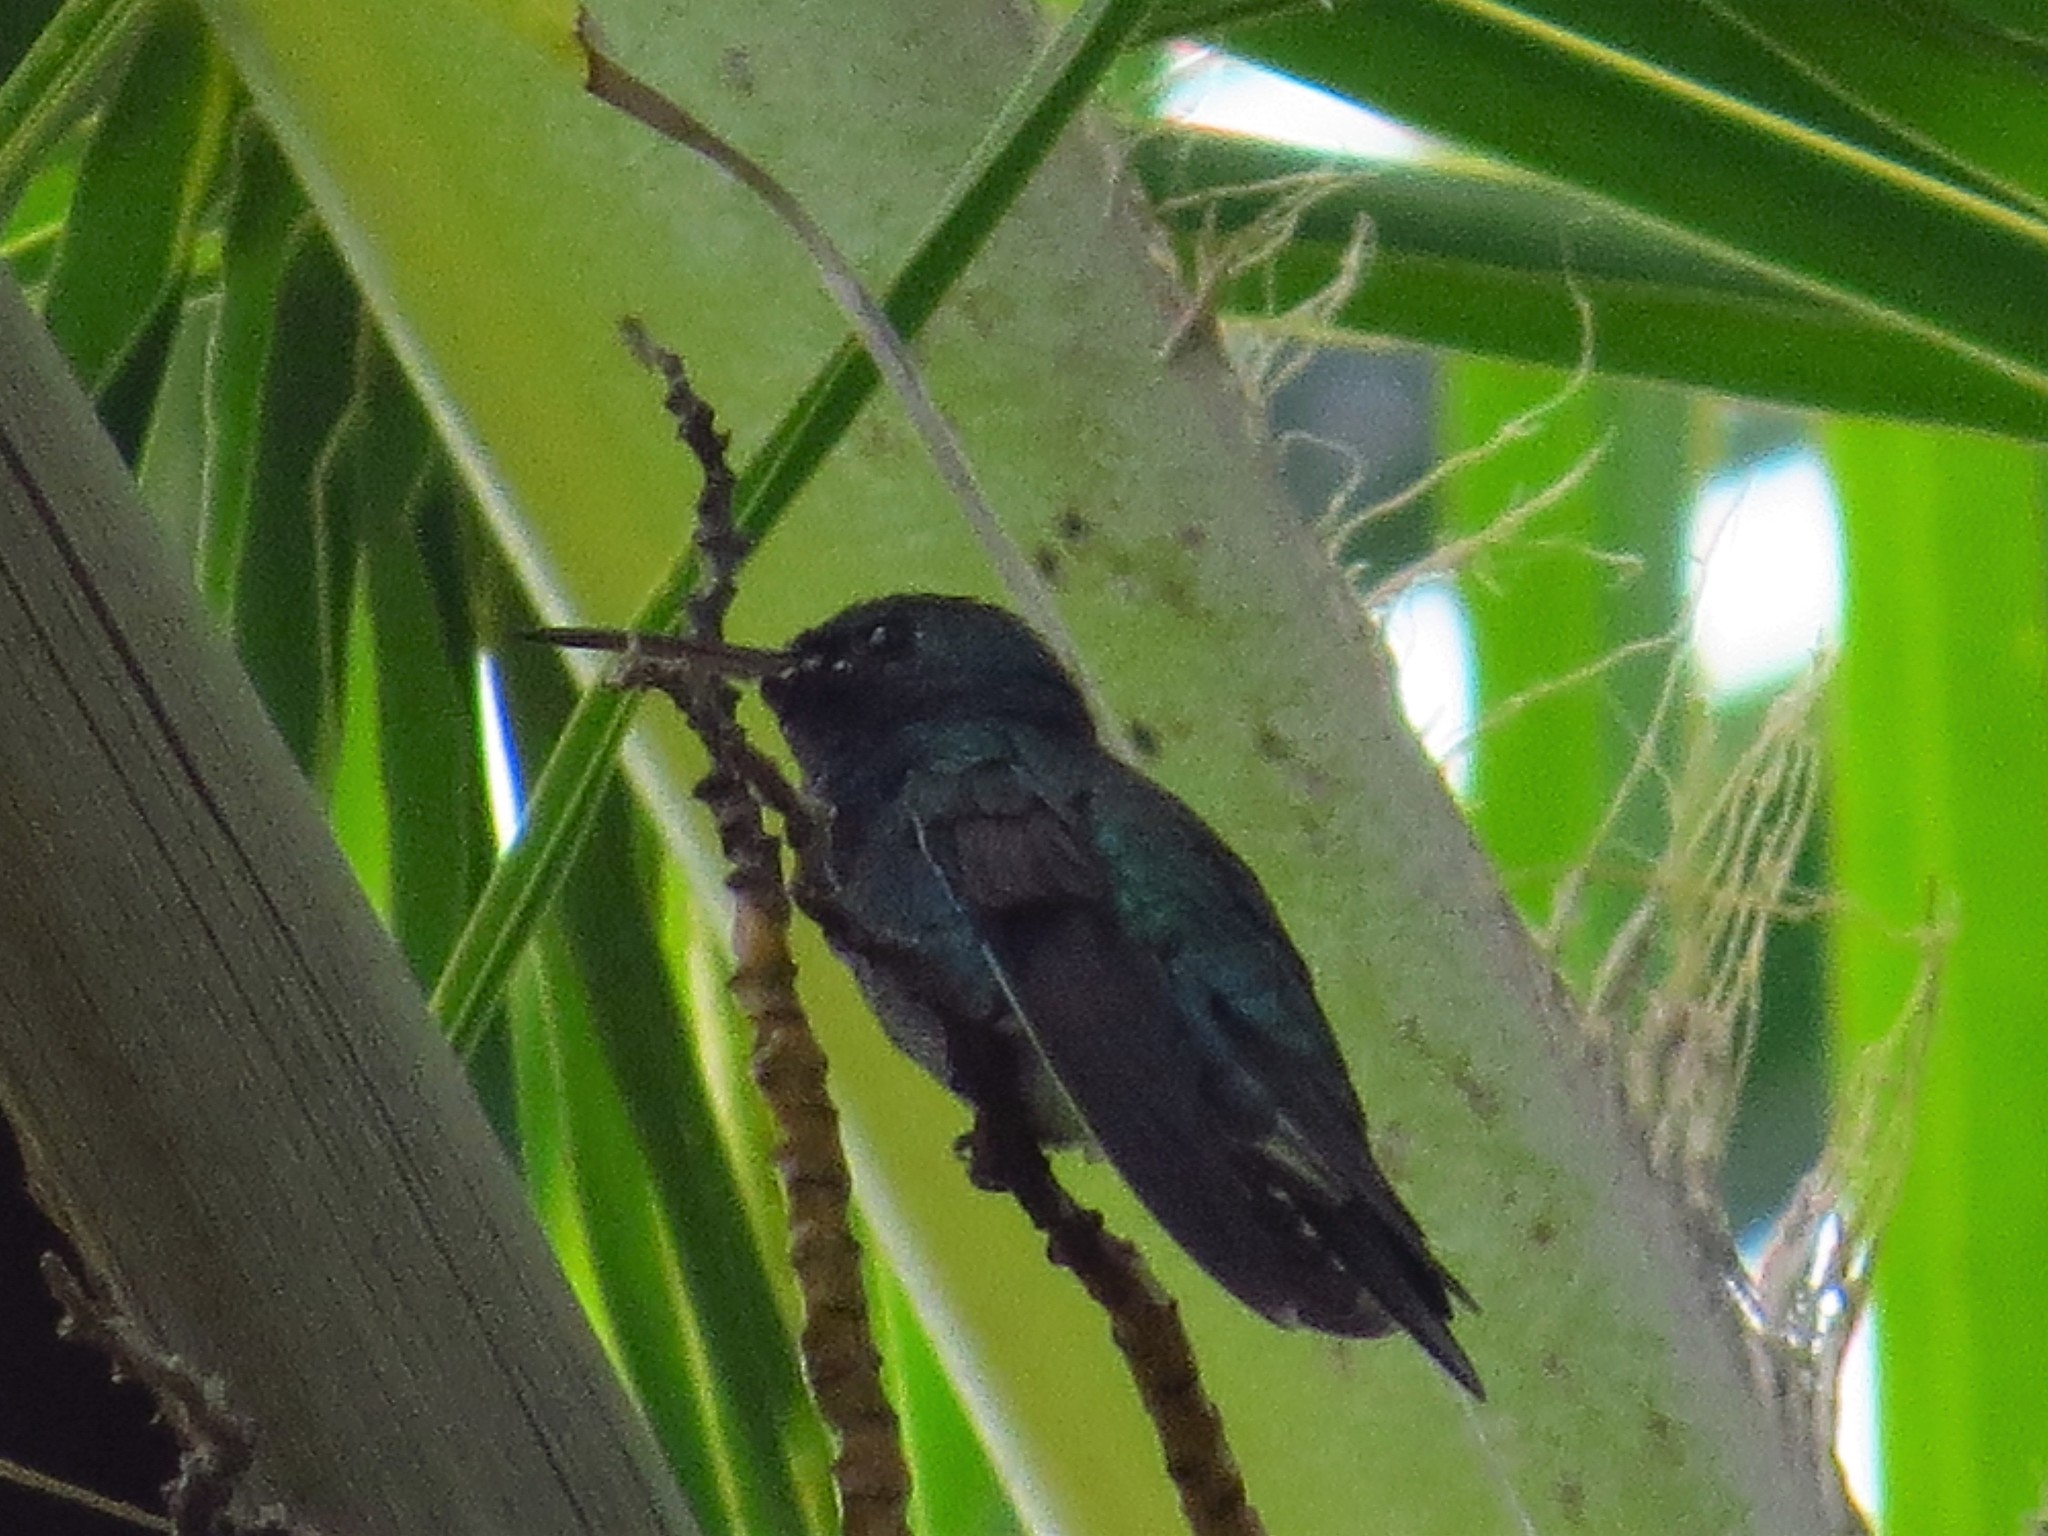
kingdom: Animalia
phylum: Chordata
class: Aves
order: Apodiformes
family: Trochilidae
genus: Chrysuronia
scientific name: Chrysuronia coeruleogularis
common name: Sapphire-throated hummingbird
